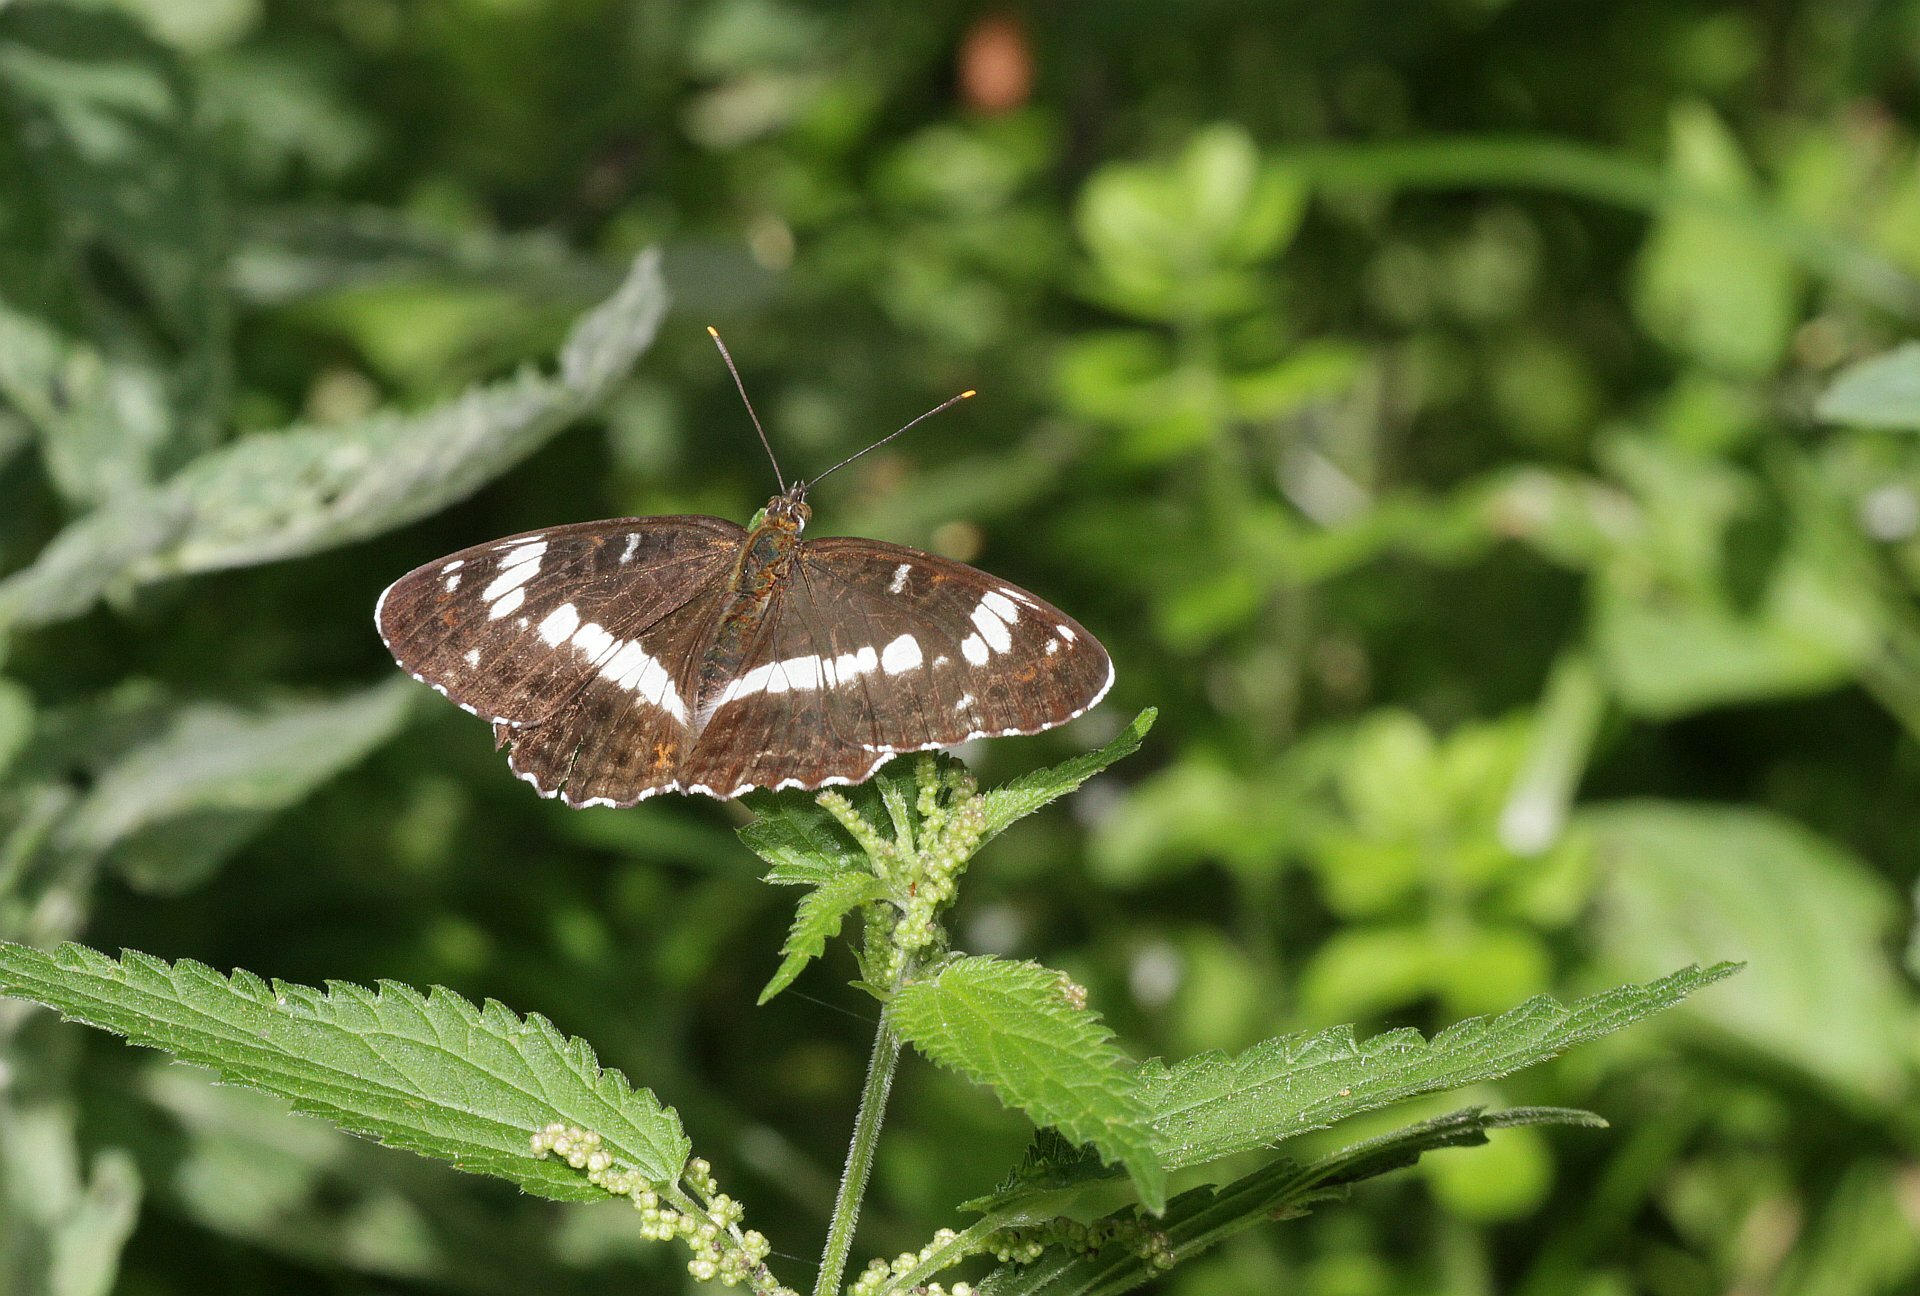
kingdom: Animalia
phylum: Arthropoda
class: Insecta
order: Lepidoptera
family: Nymphalidae
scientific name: Nymphalidae
